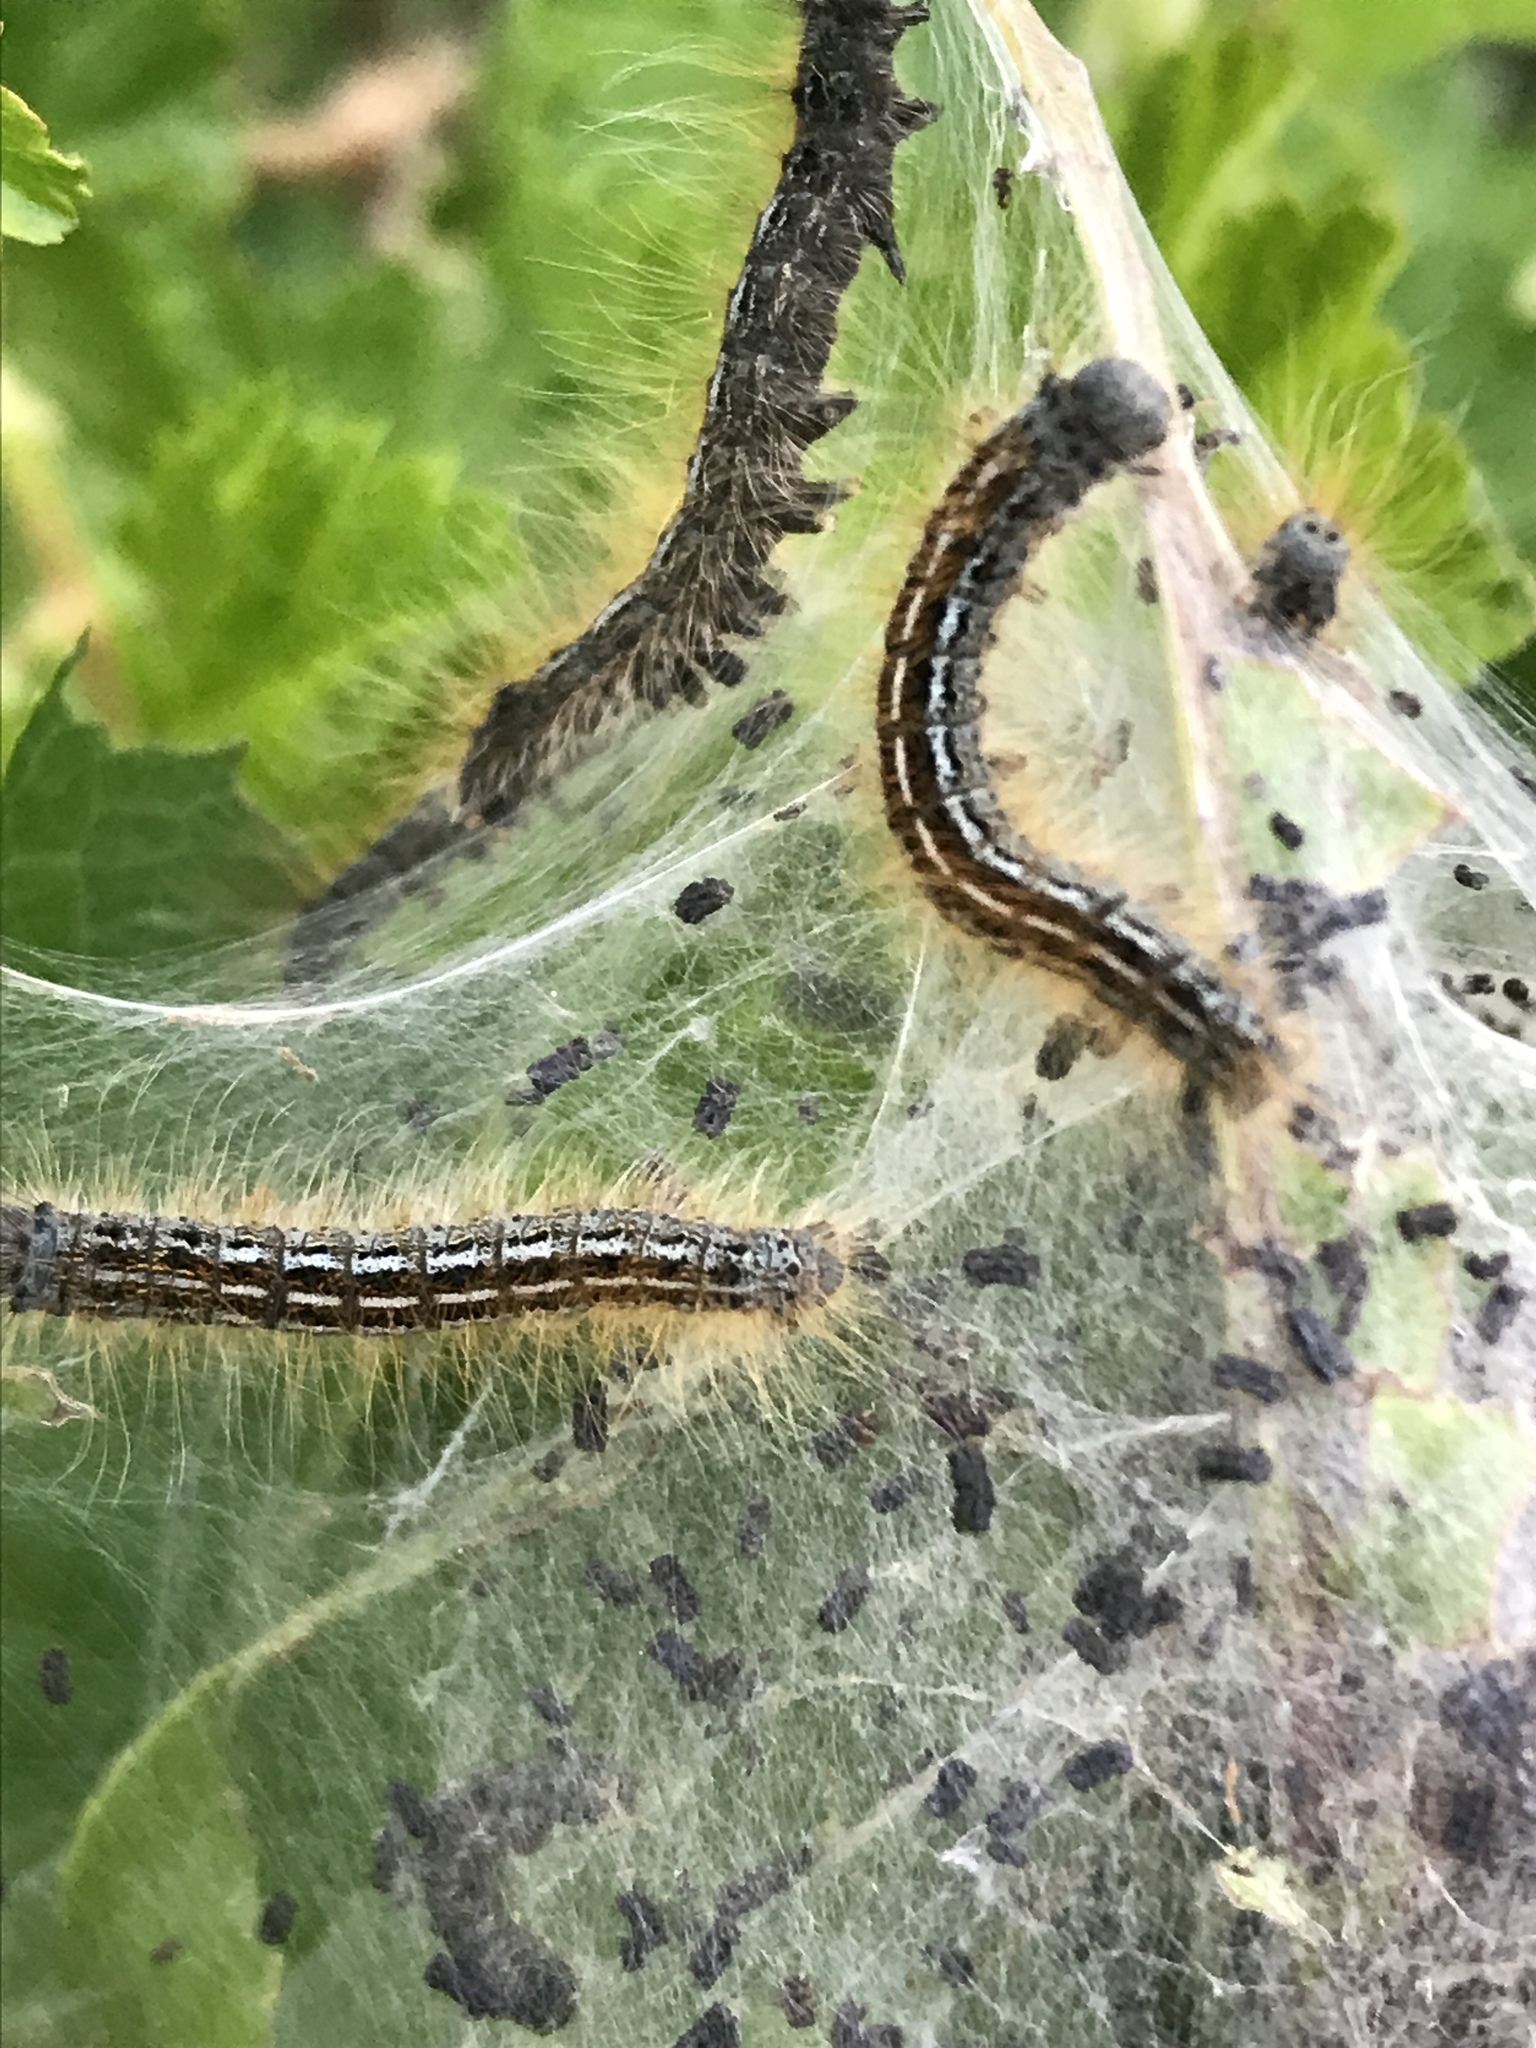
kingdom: Animalia
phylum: Arthropoda
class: Insecta
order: Lepidoptera
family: Lasiocampidae
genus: Malacosoma
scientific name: Malacosoma californica
